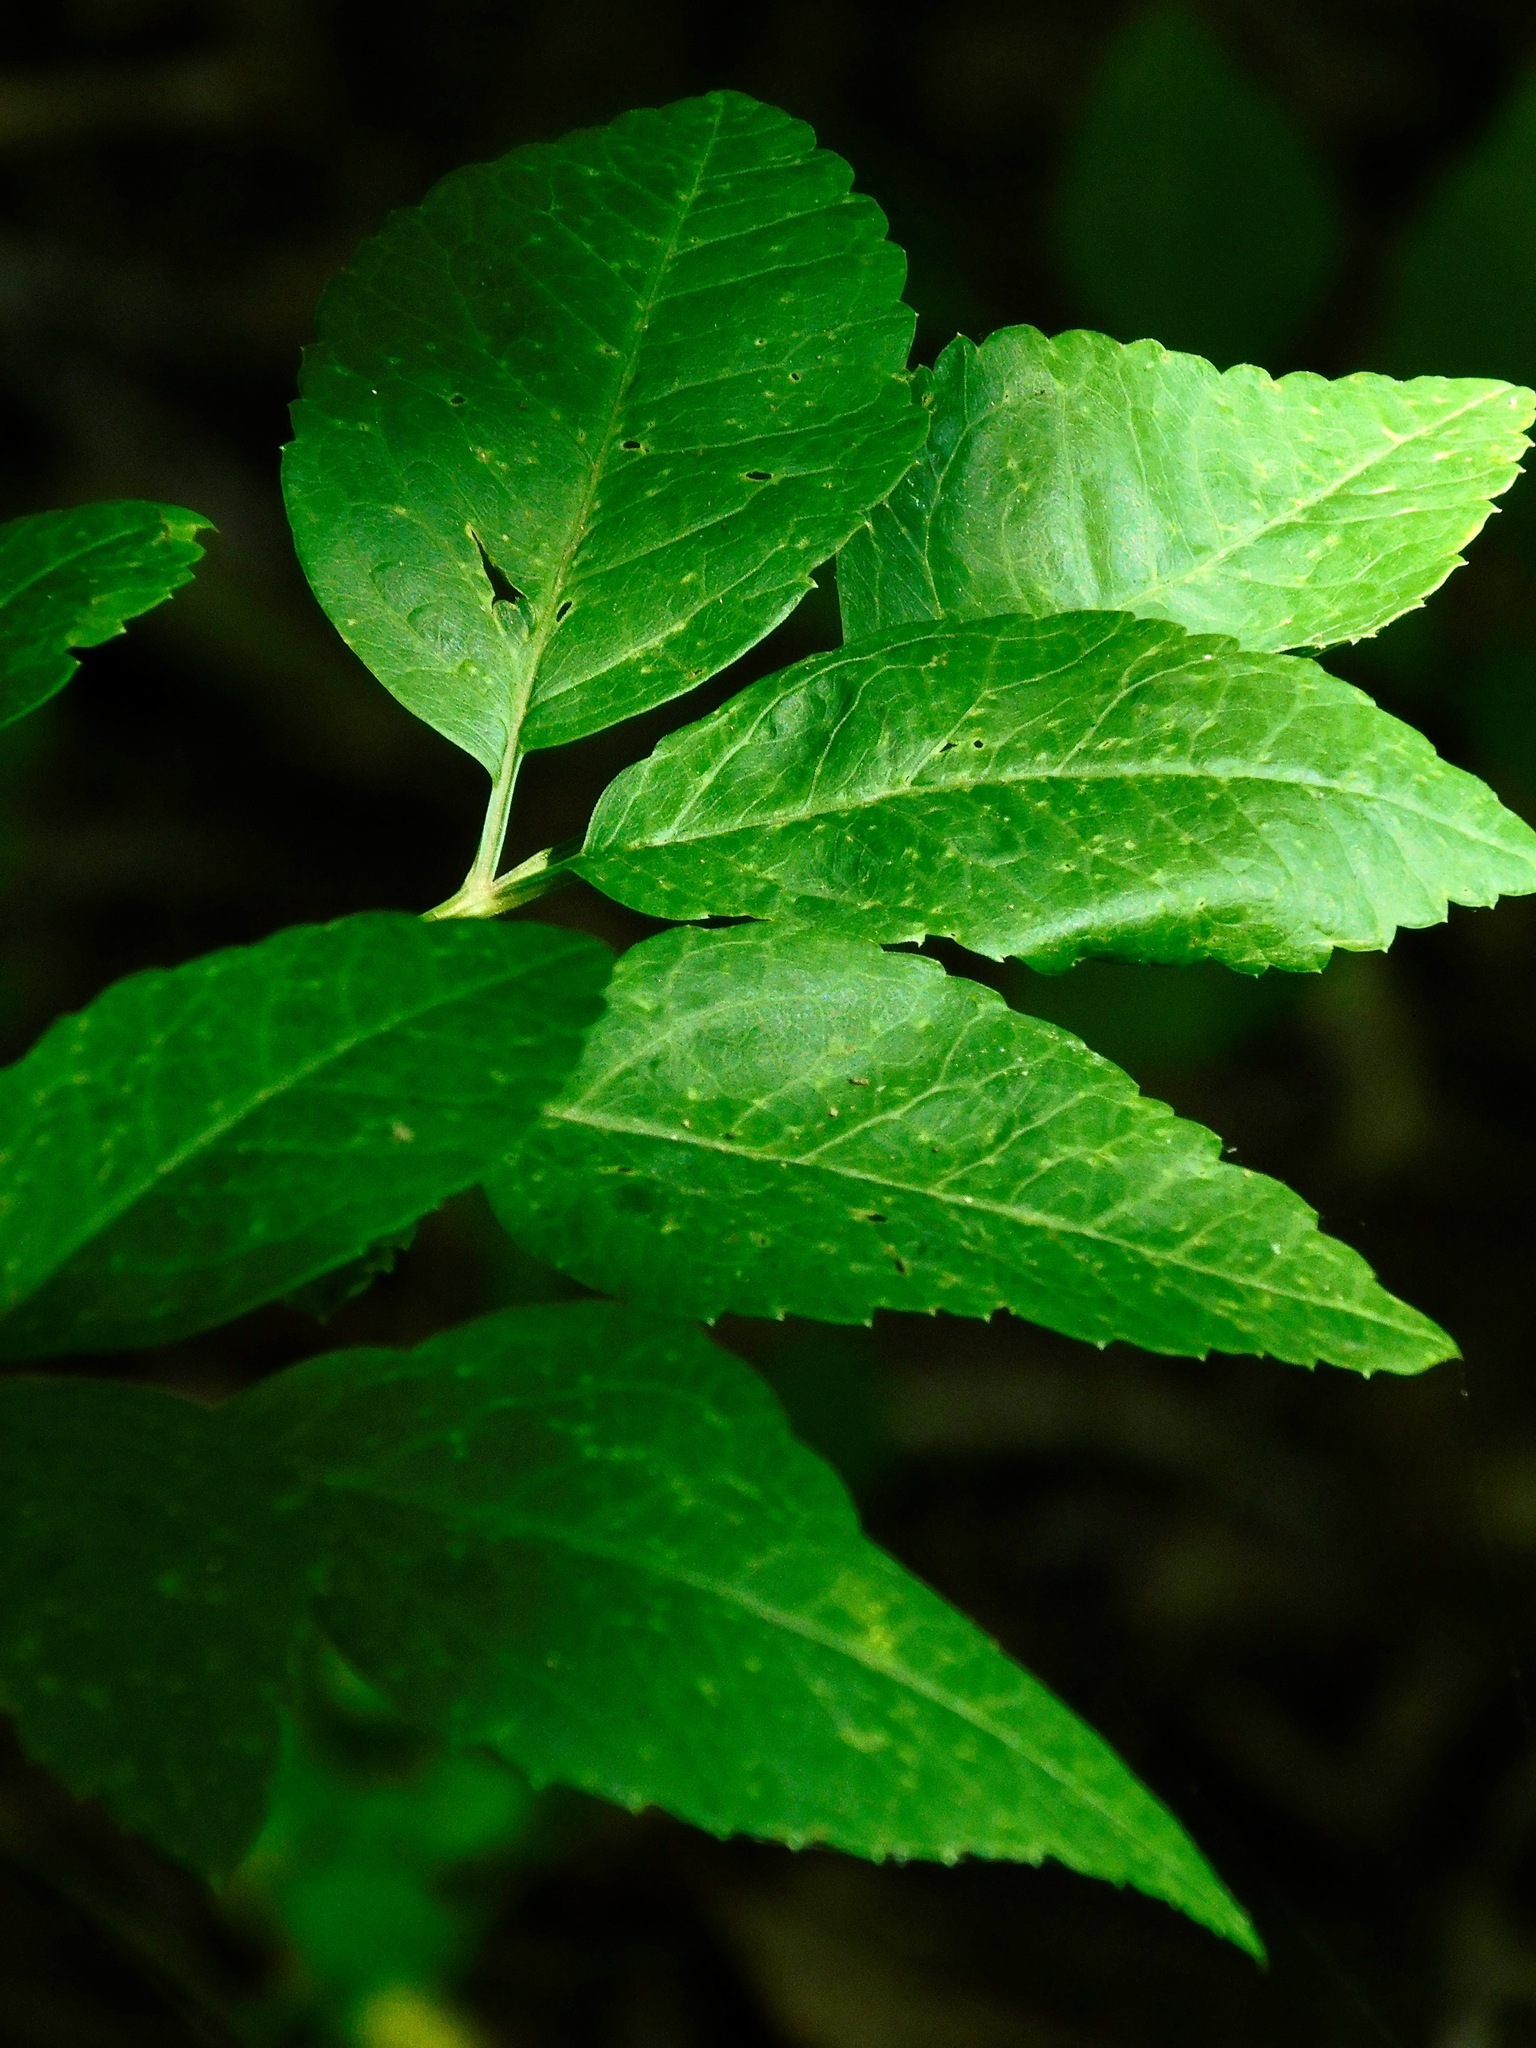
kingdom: Plantae
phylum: Tracheophyta
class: Magnoliopsida
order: Apiales
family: Apiaceae
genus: Ligusticum
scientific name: Ligusticum canadense
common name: American lovage
